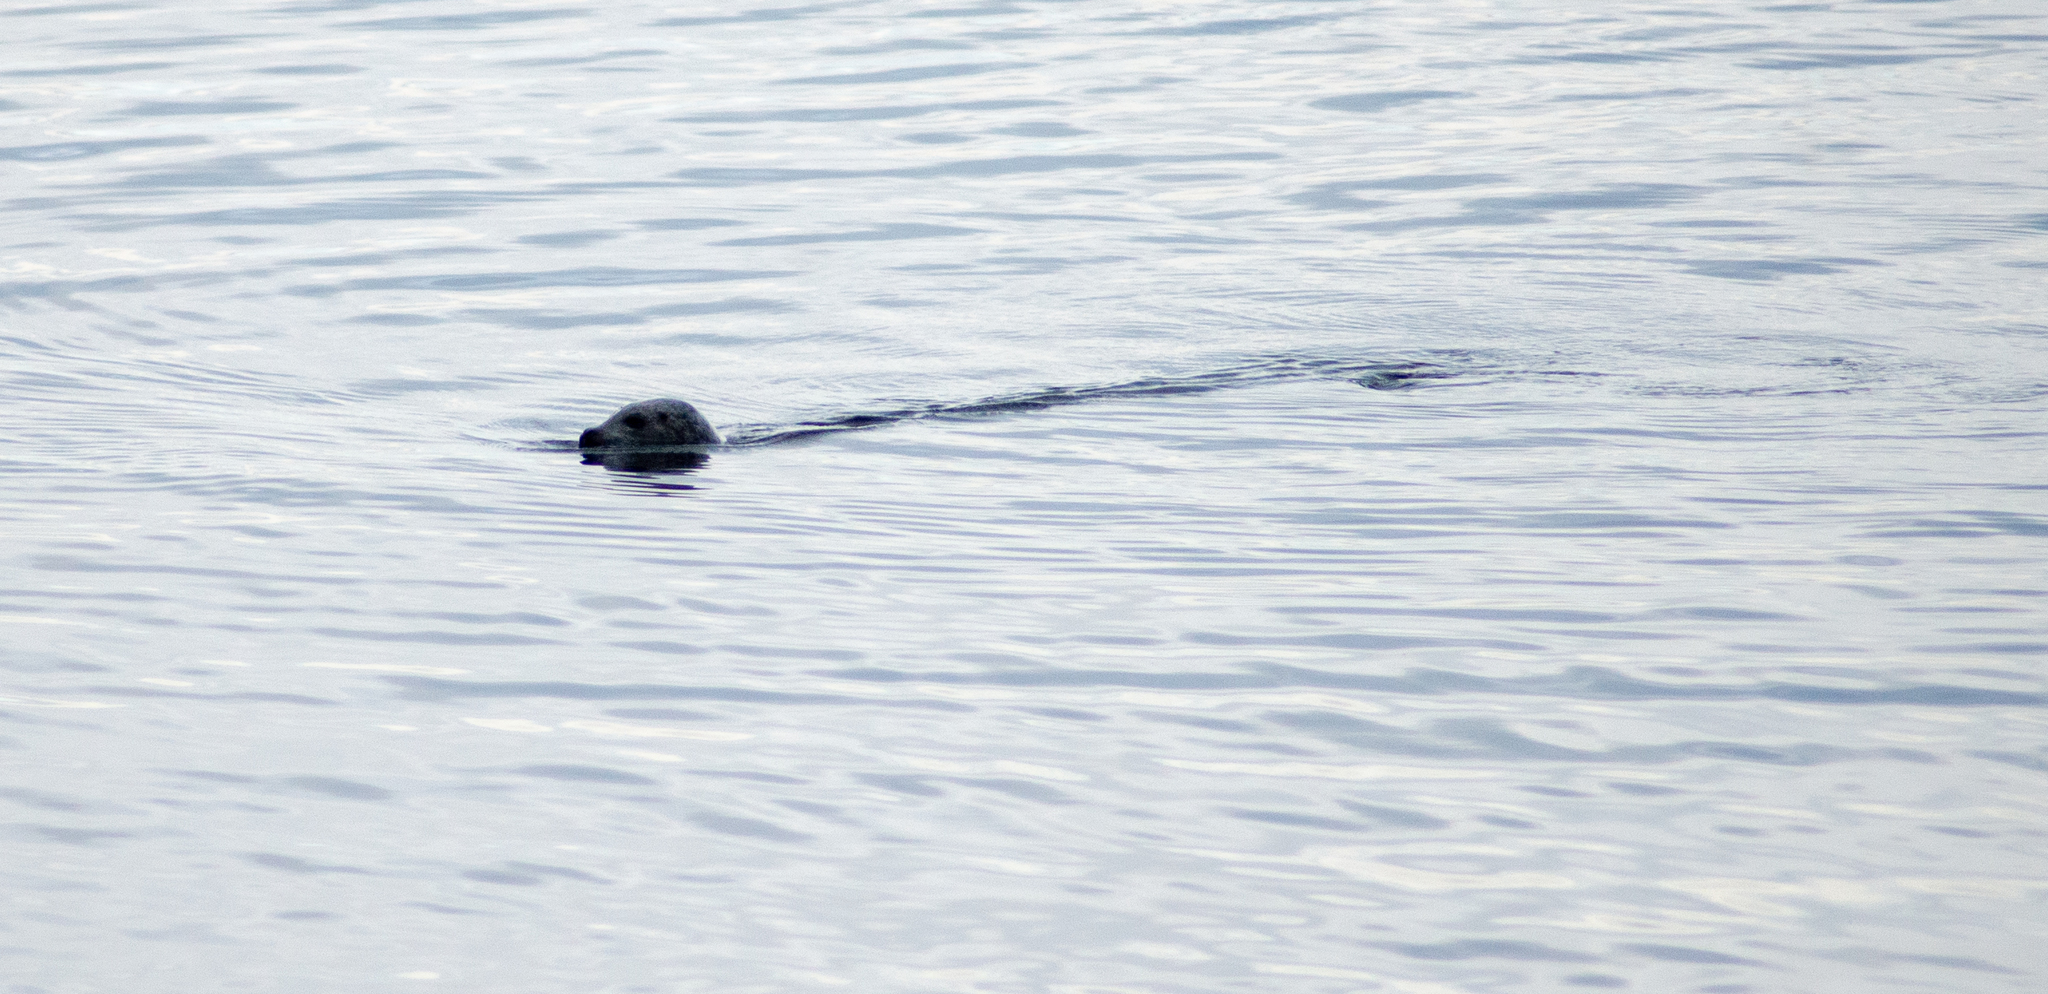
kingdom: Animalia
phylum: Chordata
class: Mammalia
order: Carnivora
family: Phocidae
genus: Halichoerus
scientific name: Halichoerus grypus
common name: Grey seal
